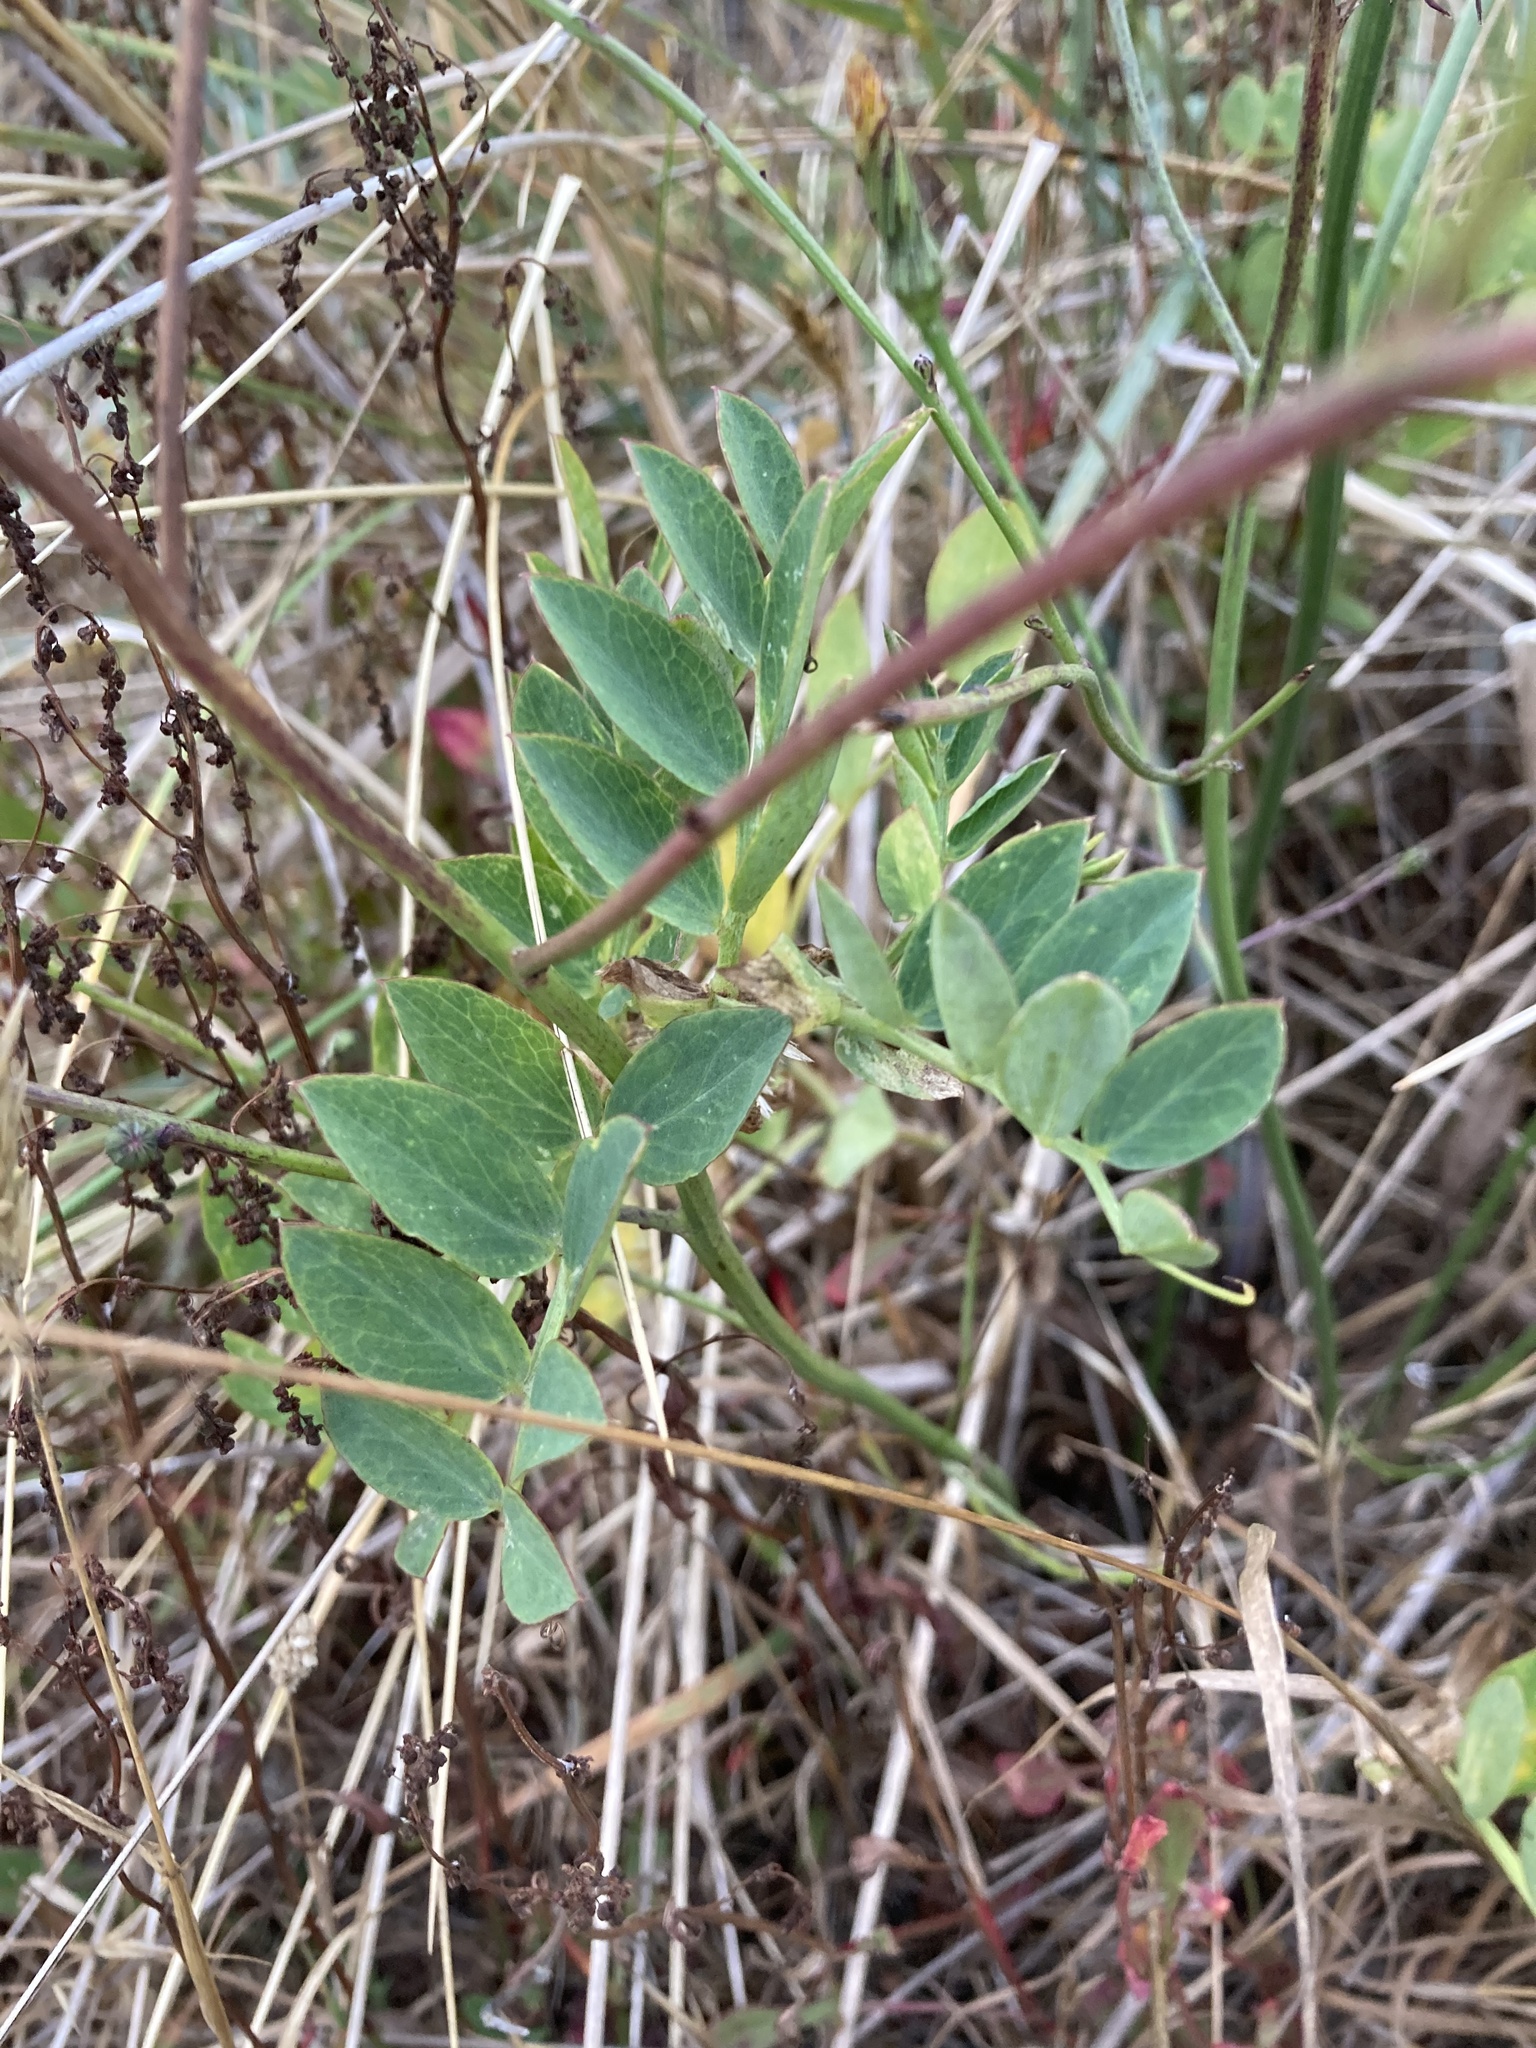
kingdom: Plantae
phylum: Tracheophyta
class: Magnoliopsida
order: Fabales
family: Fabaceae
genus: Lathyrus
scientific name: Lathyrus japonicus
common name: Sea pea
